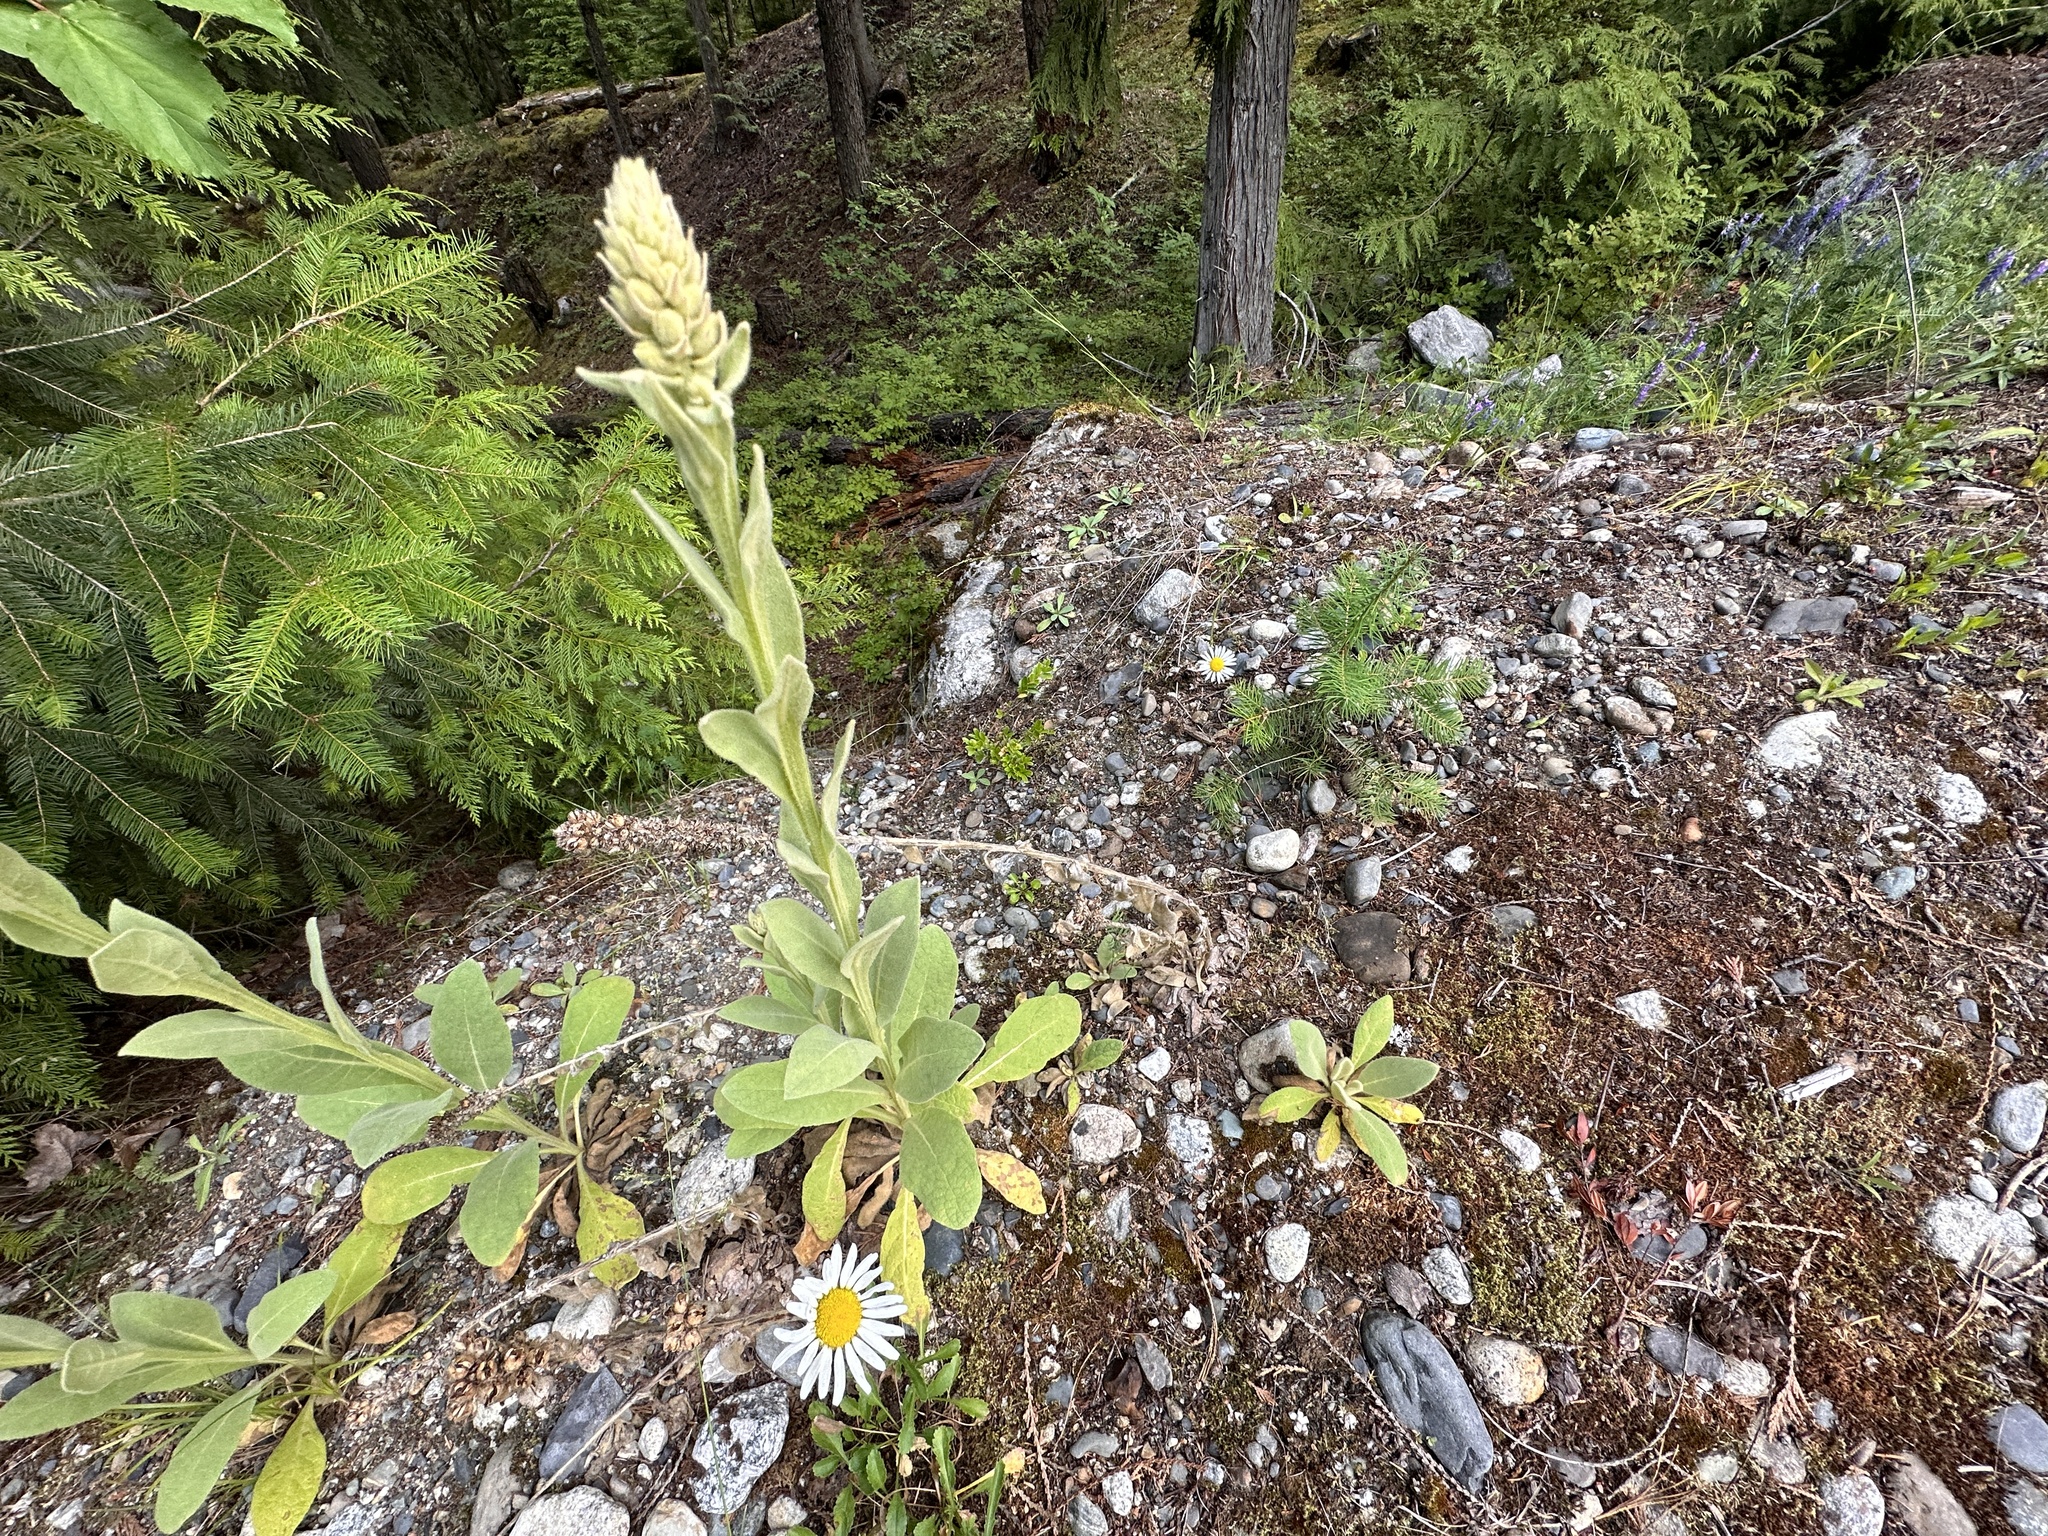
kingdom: Plantae
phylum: Tracheophyta
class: Magnoliopsida
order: Lamiales
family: Scrophulariaceae
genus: Verbascum
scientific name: Verbascum thapsus
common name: Common mullein
